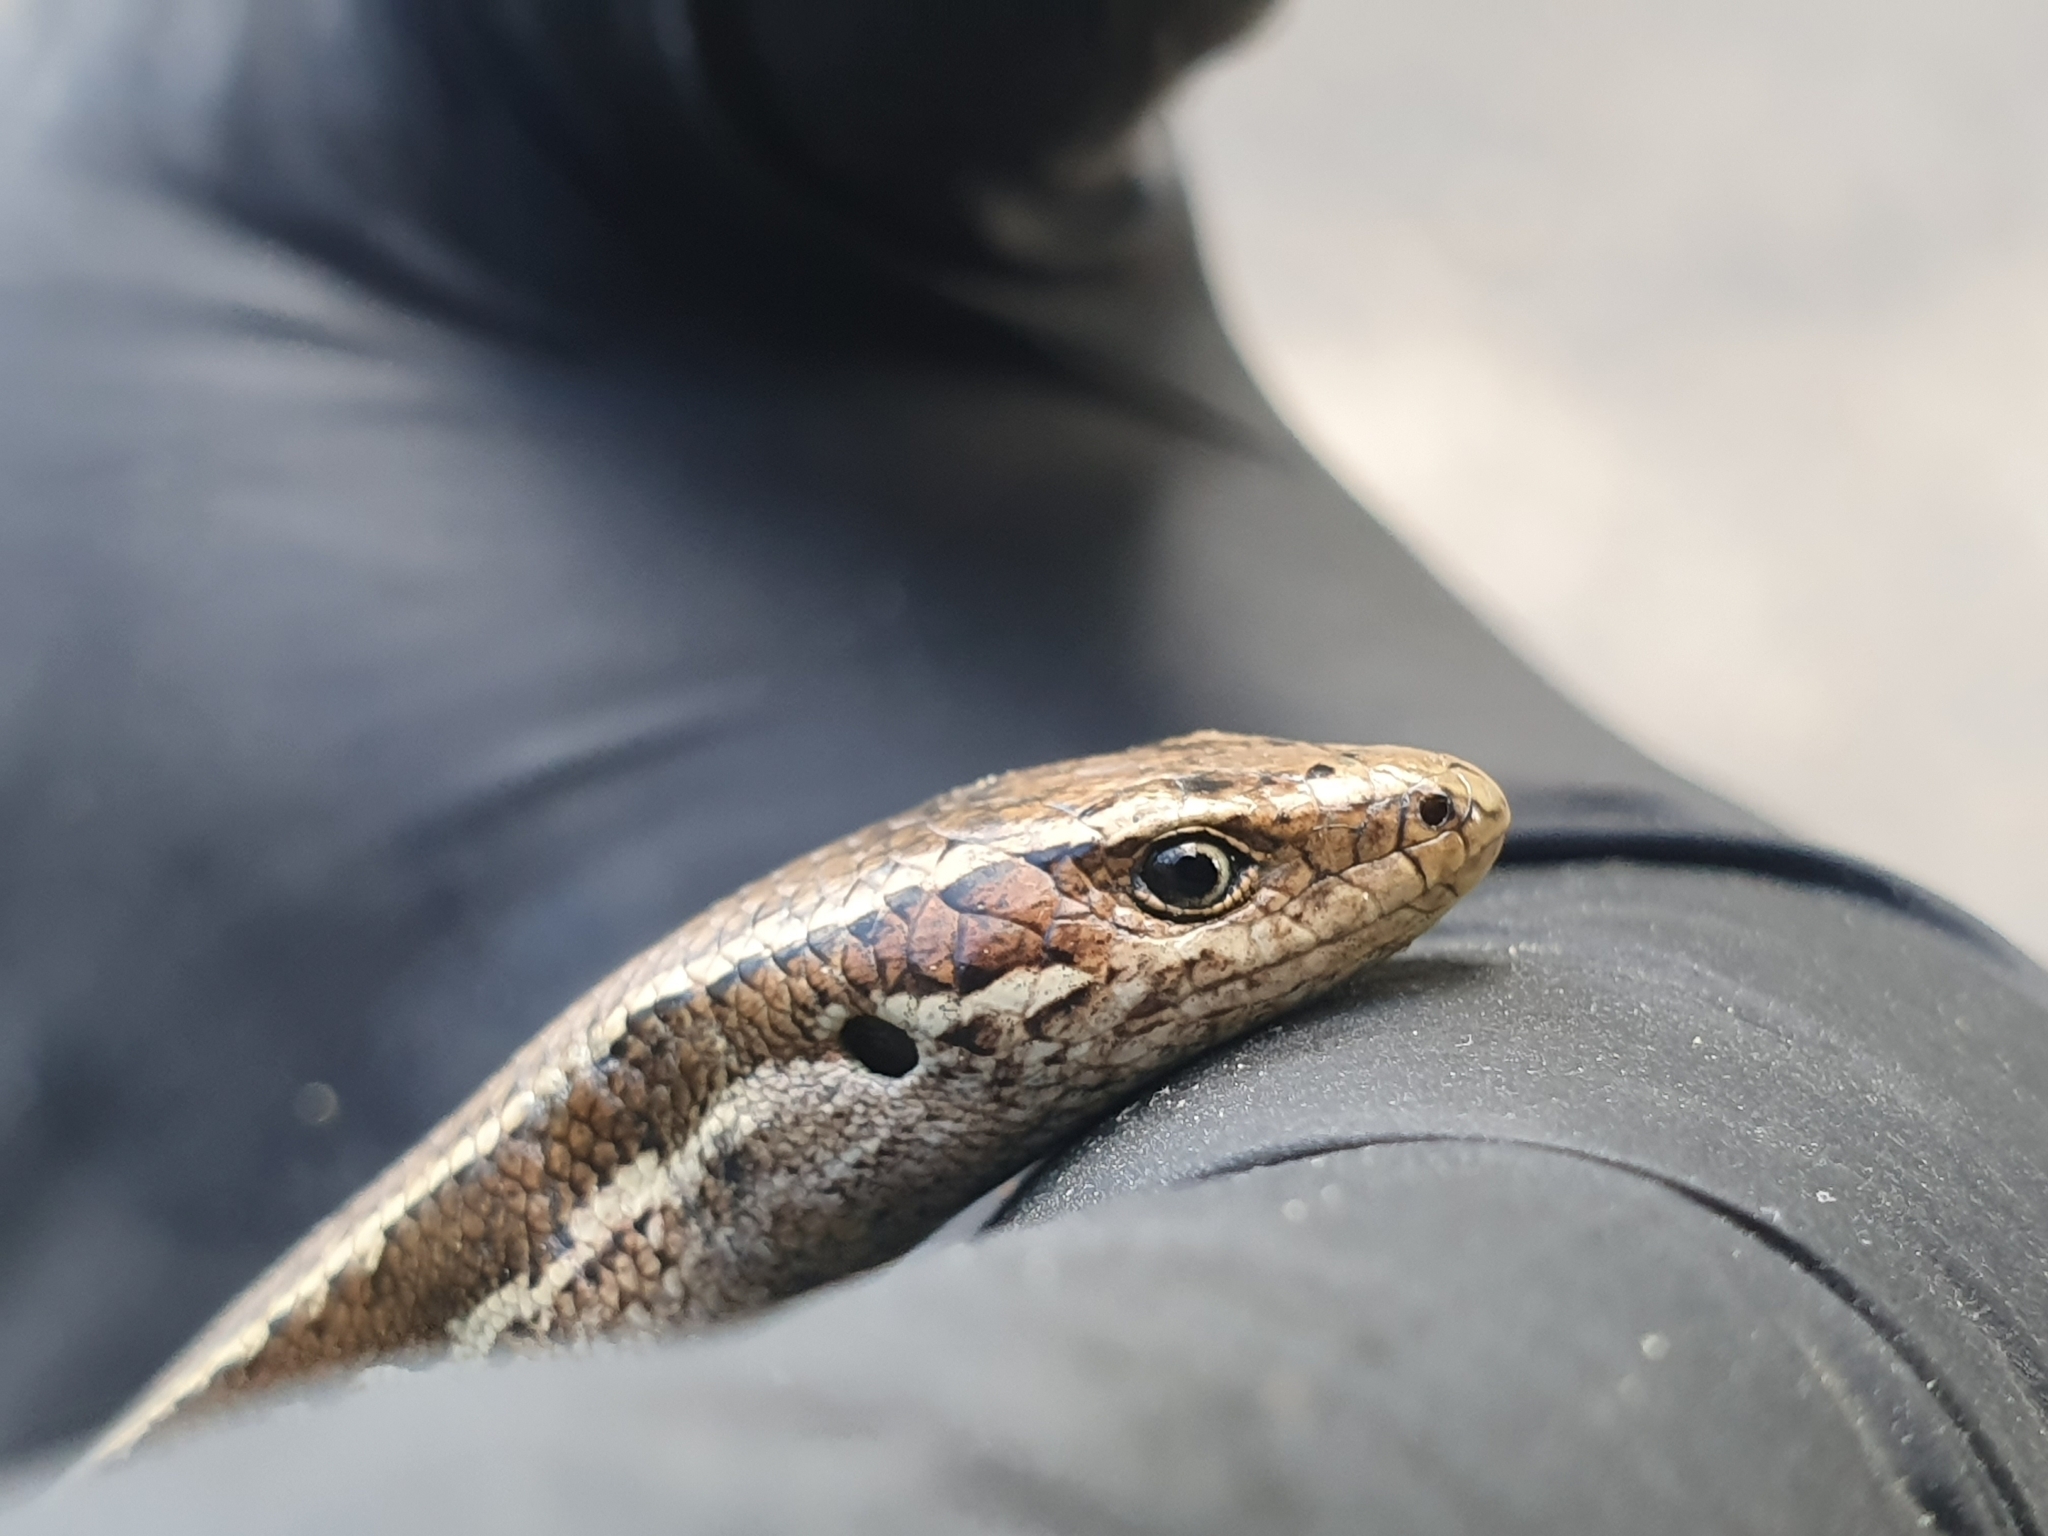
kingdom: Animalia
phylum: Chordata
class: Squamata
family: Scincidae
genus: Oligosoma
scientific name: Oligosoma polychroma
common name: Common new zealand skink
